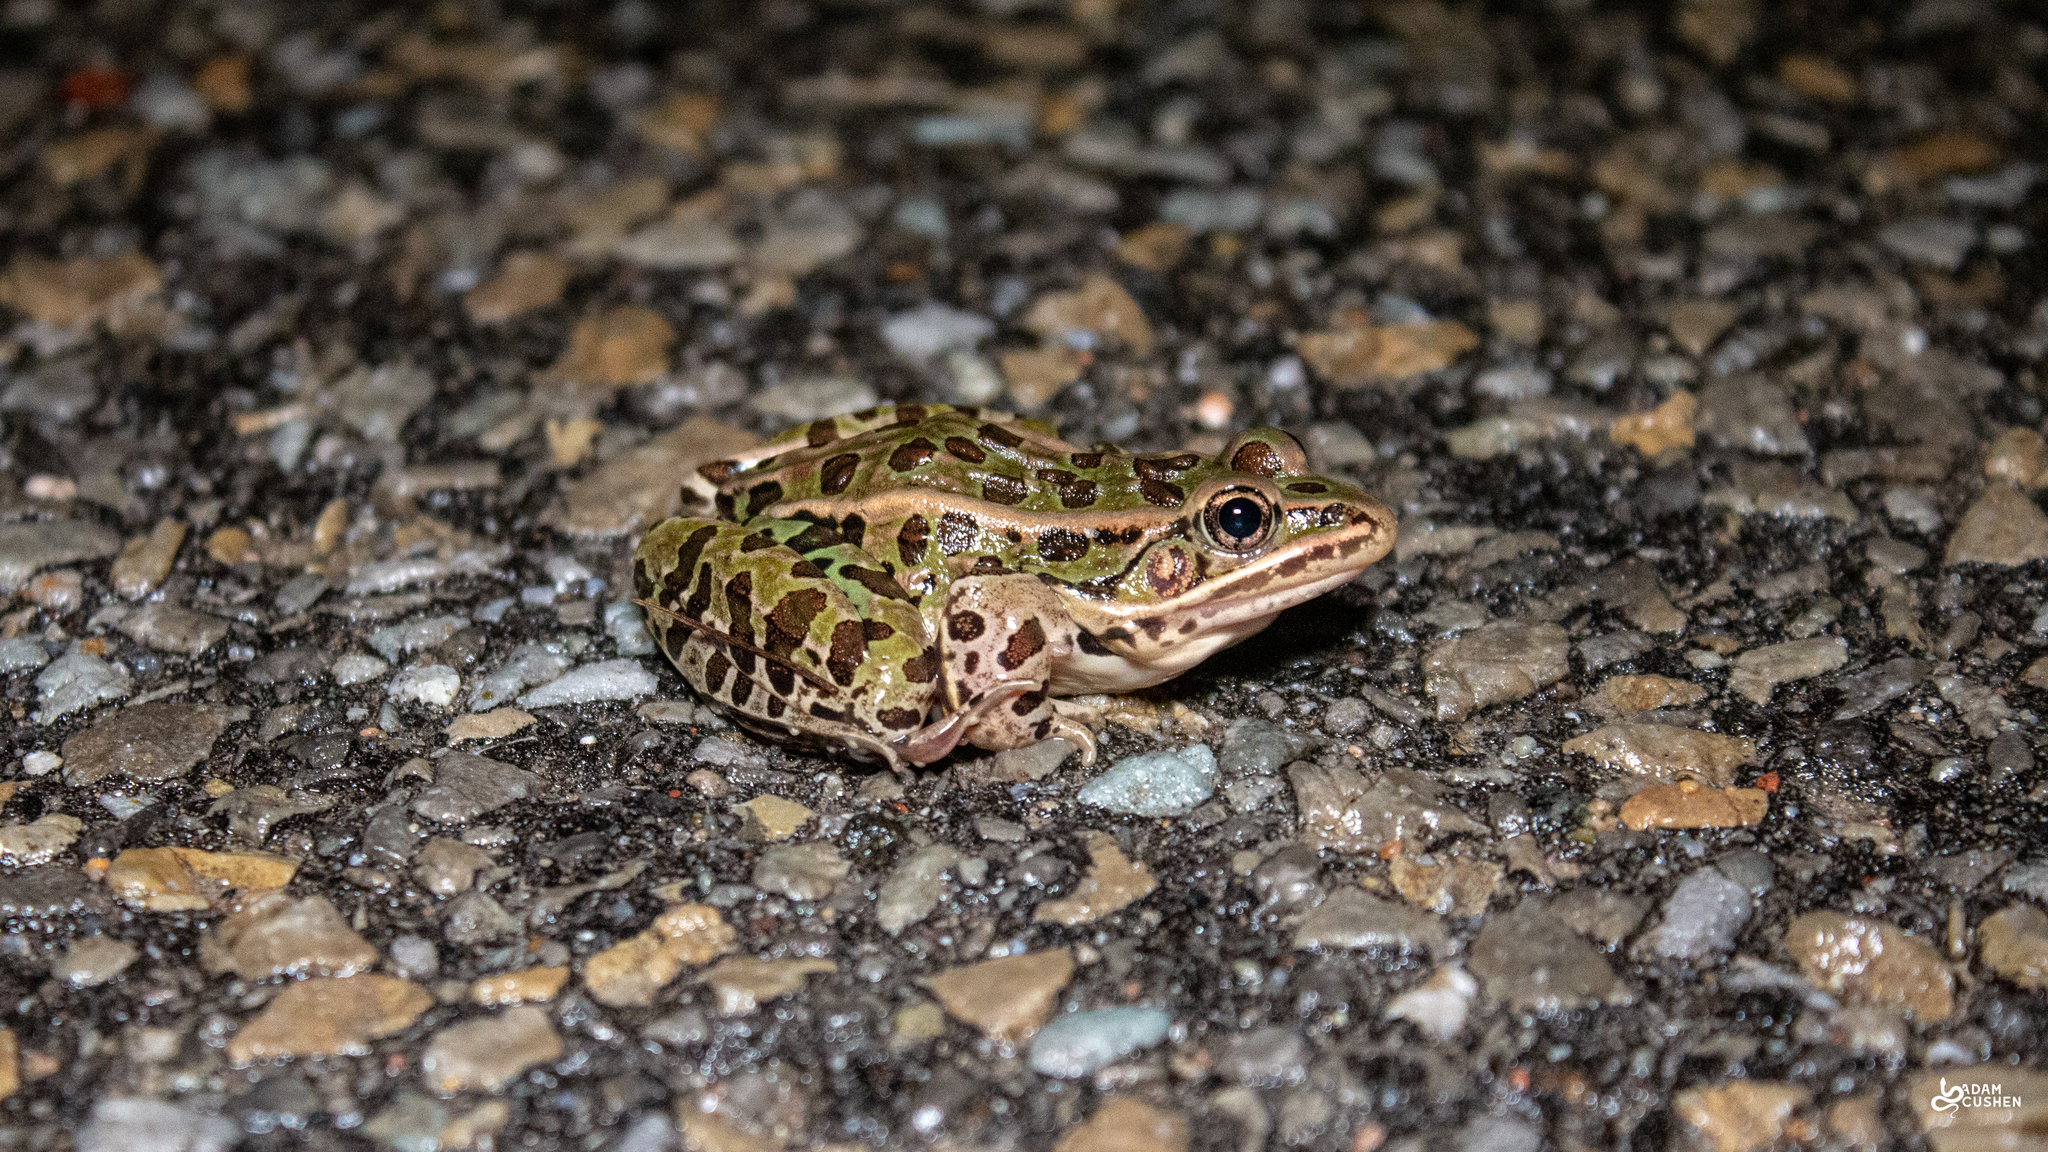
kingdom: Animalia
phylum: Chordata
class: Amphibia
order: Anura
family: Ranidae
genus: Lithobates
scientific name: Lithobates pipiens
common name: Northern leopard frog
